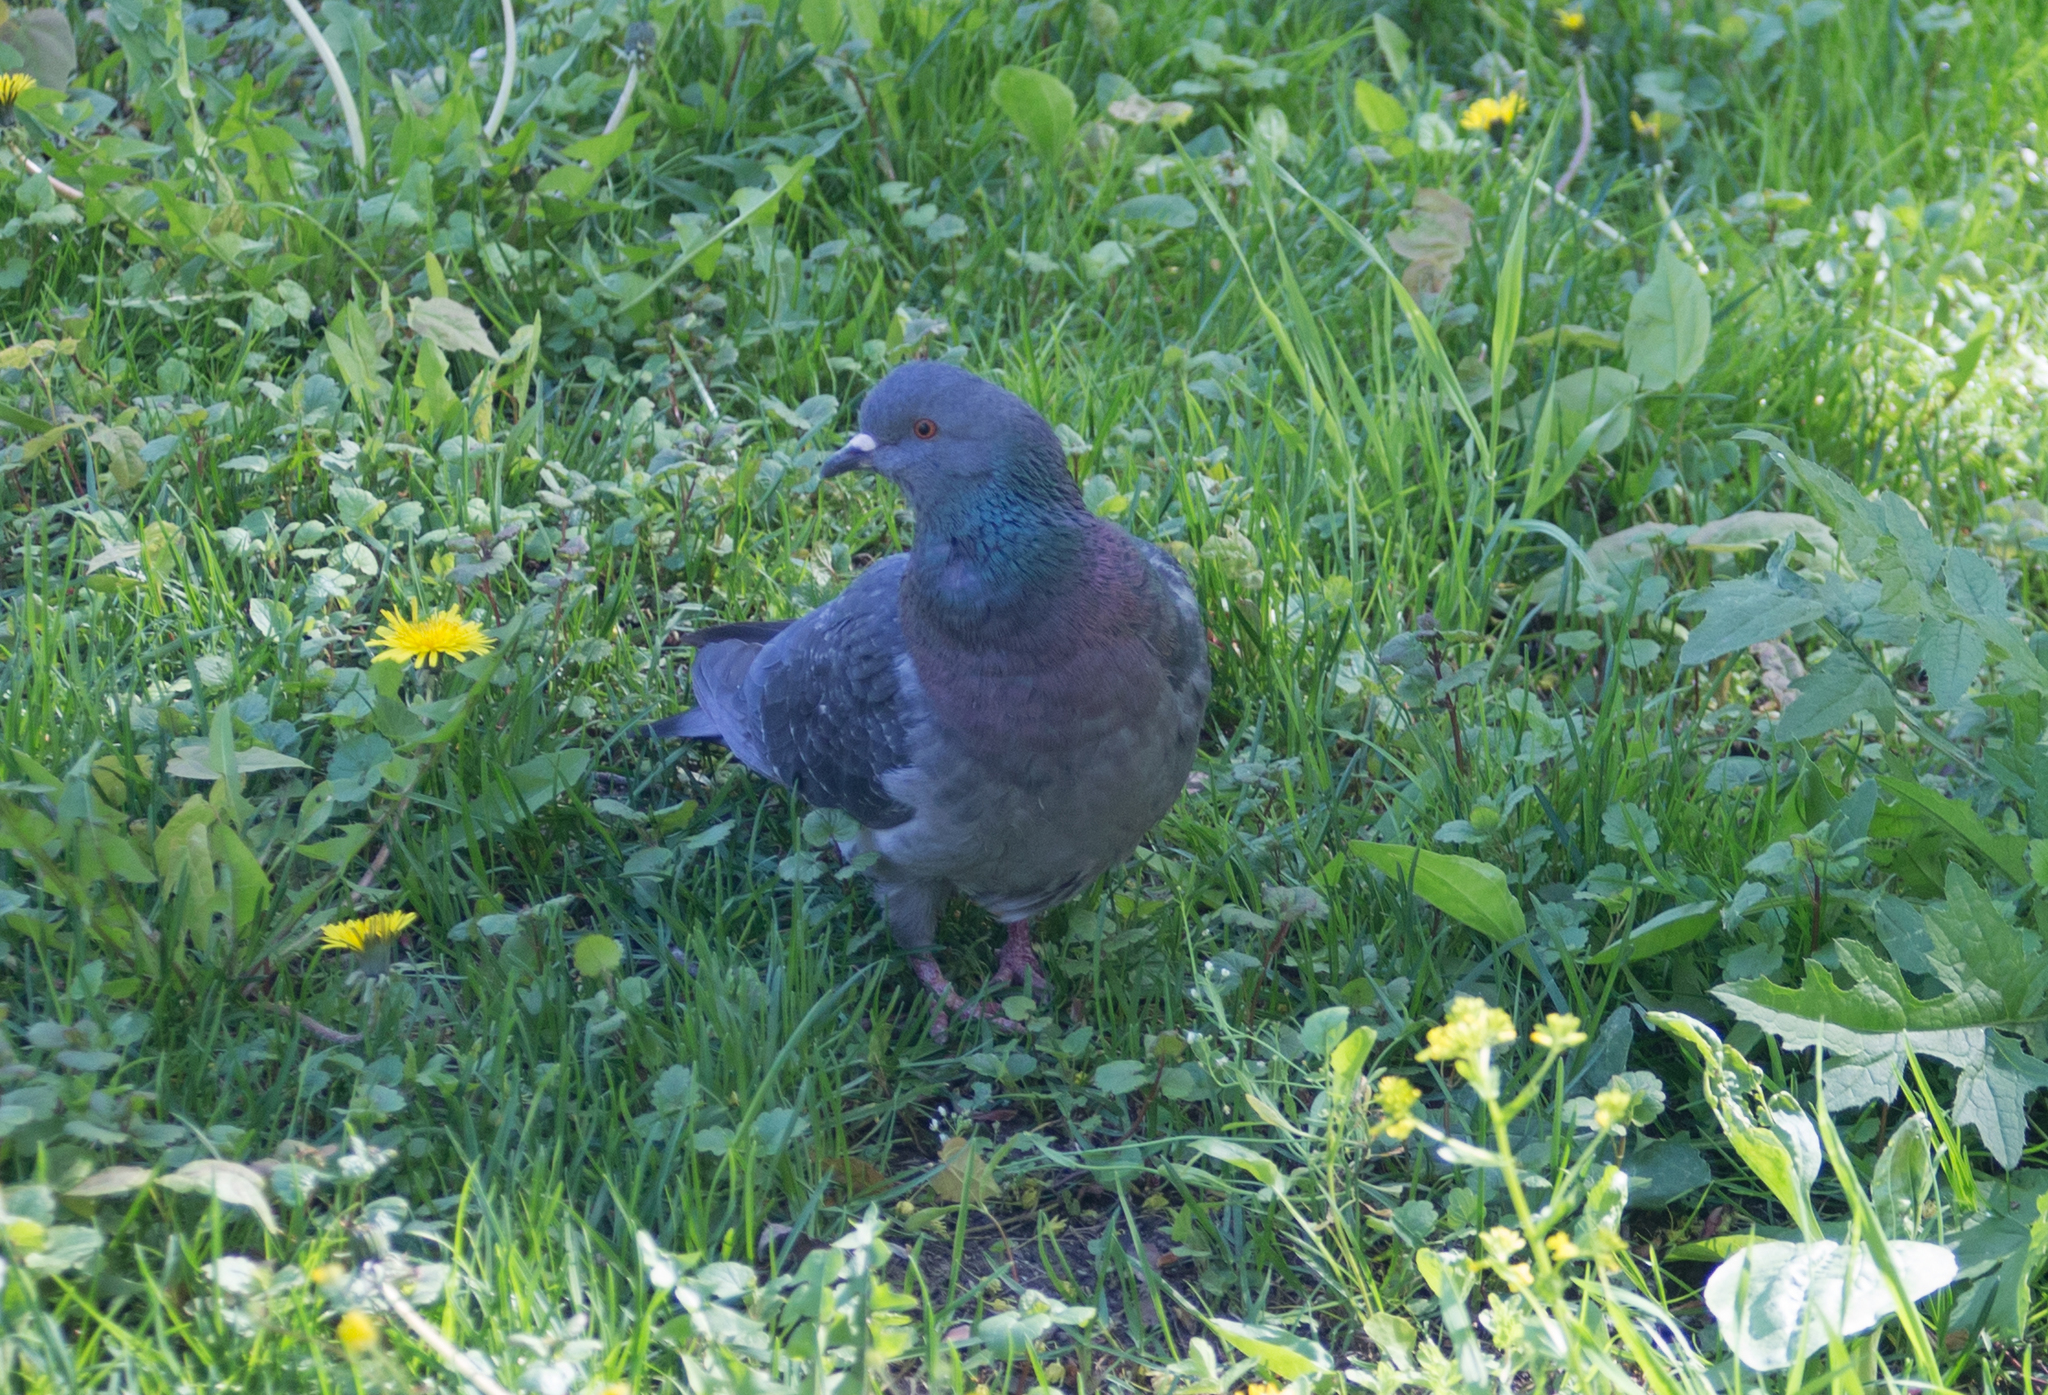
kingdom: Animalia
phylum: Chordata
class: Aves
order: Columbiformes
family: Columbidae
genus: Columba
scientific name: Columba livia
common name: Rock pigeon
